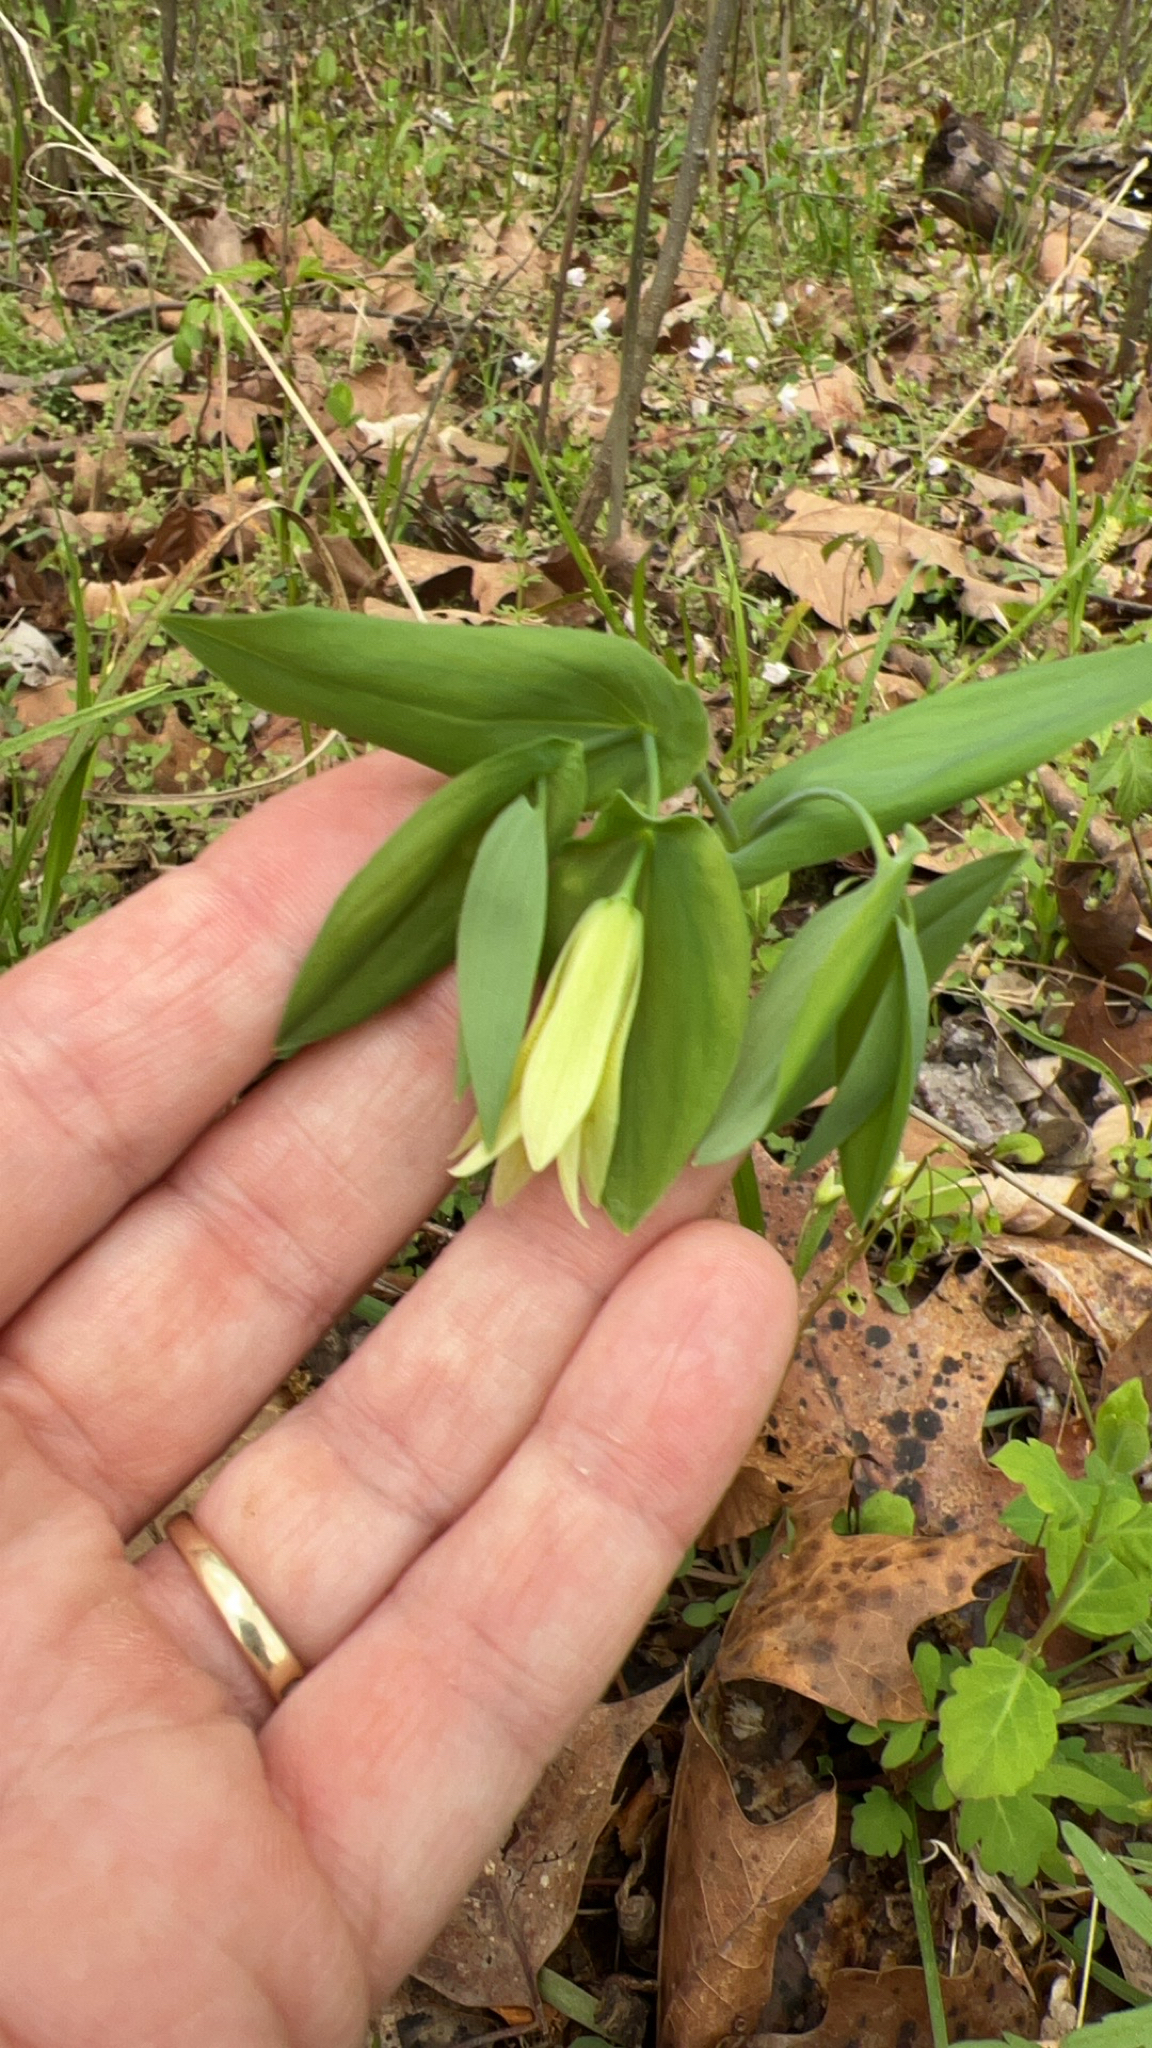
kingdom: Plantae
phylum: Tracheophyta
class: Liliopsida
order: Liliales
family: Colchicaceae
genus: Uvularia
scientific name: Uvularia perfoliata
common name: Perfoliate bellwort
